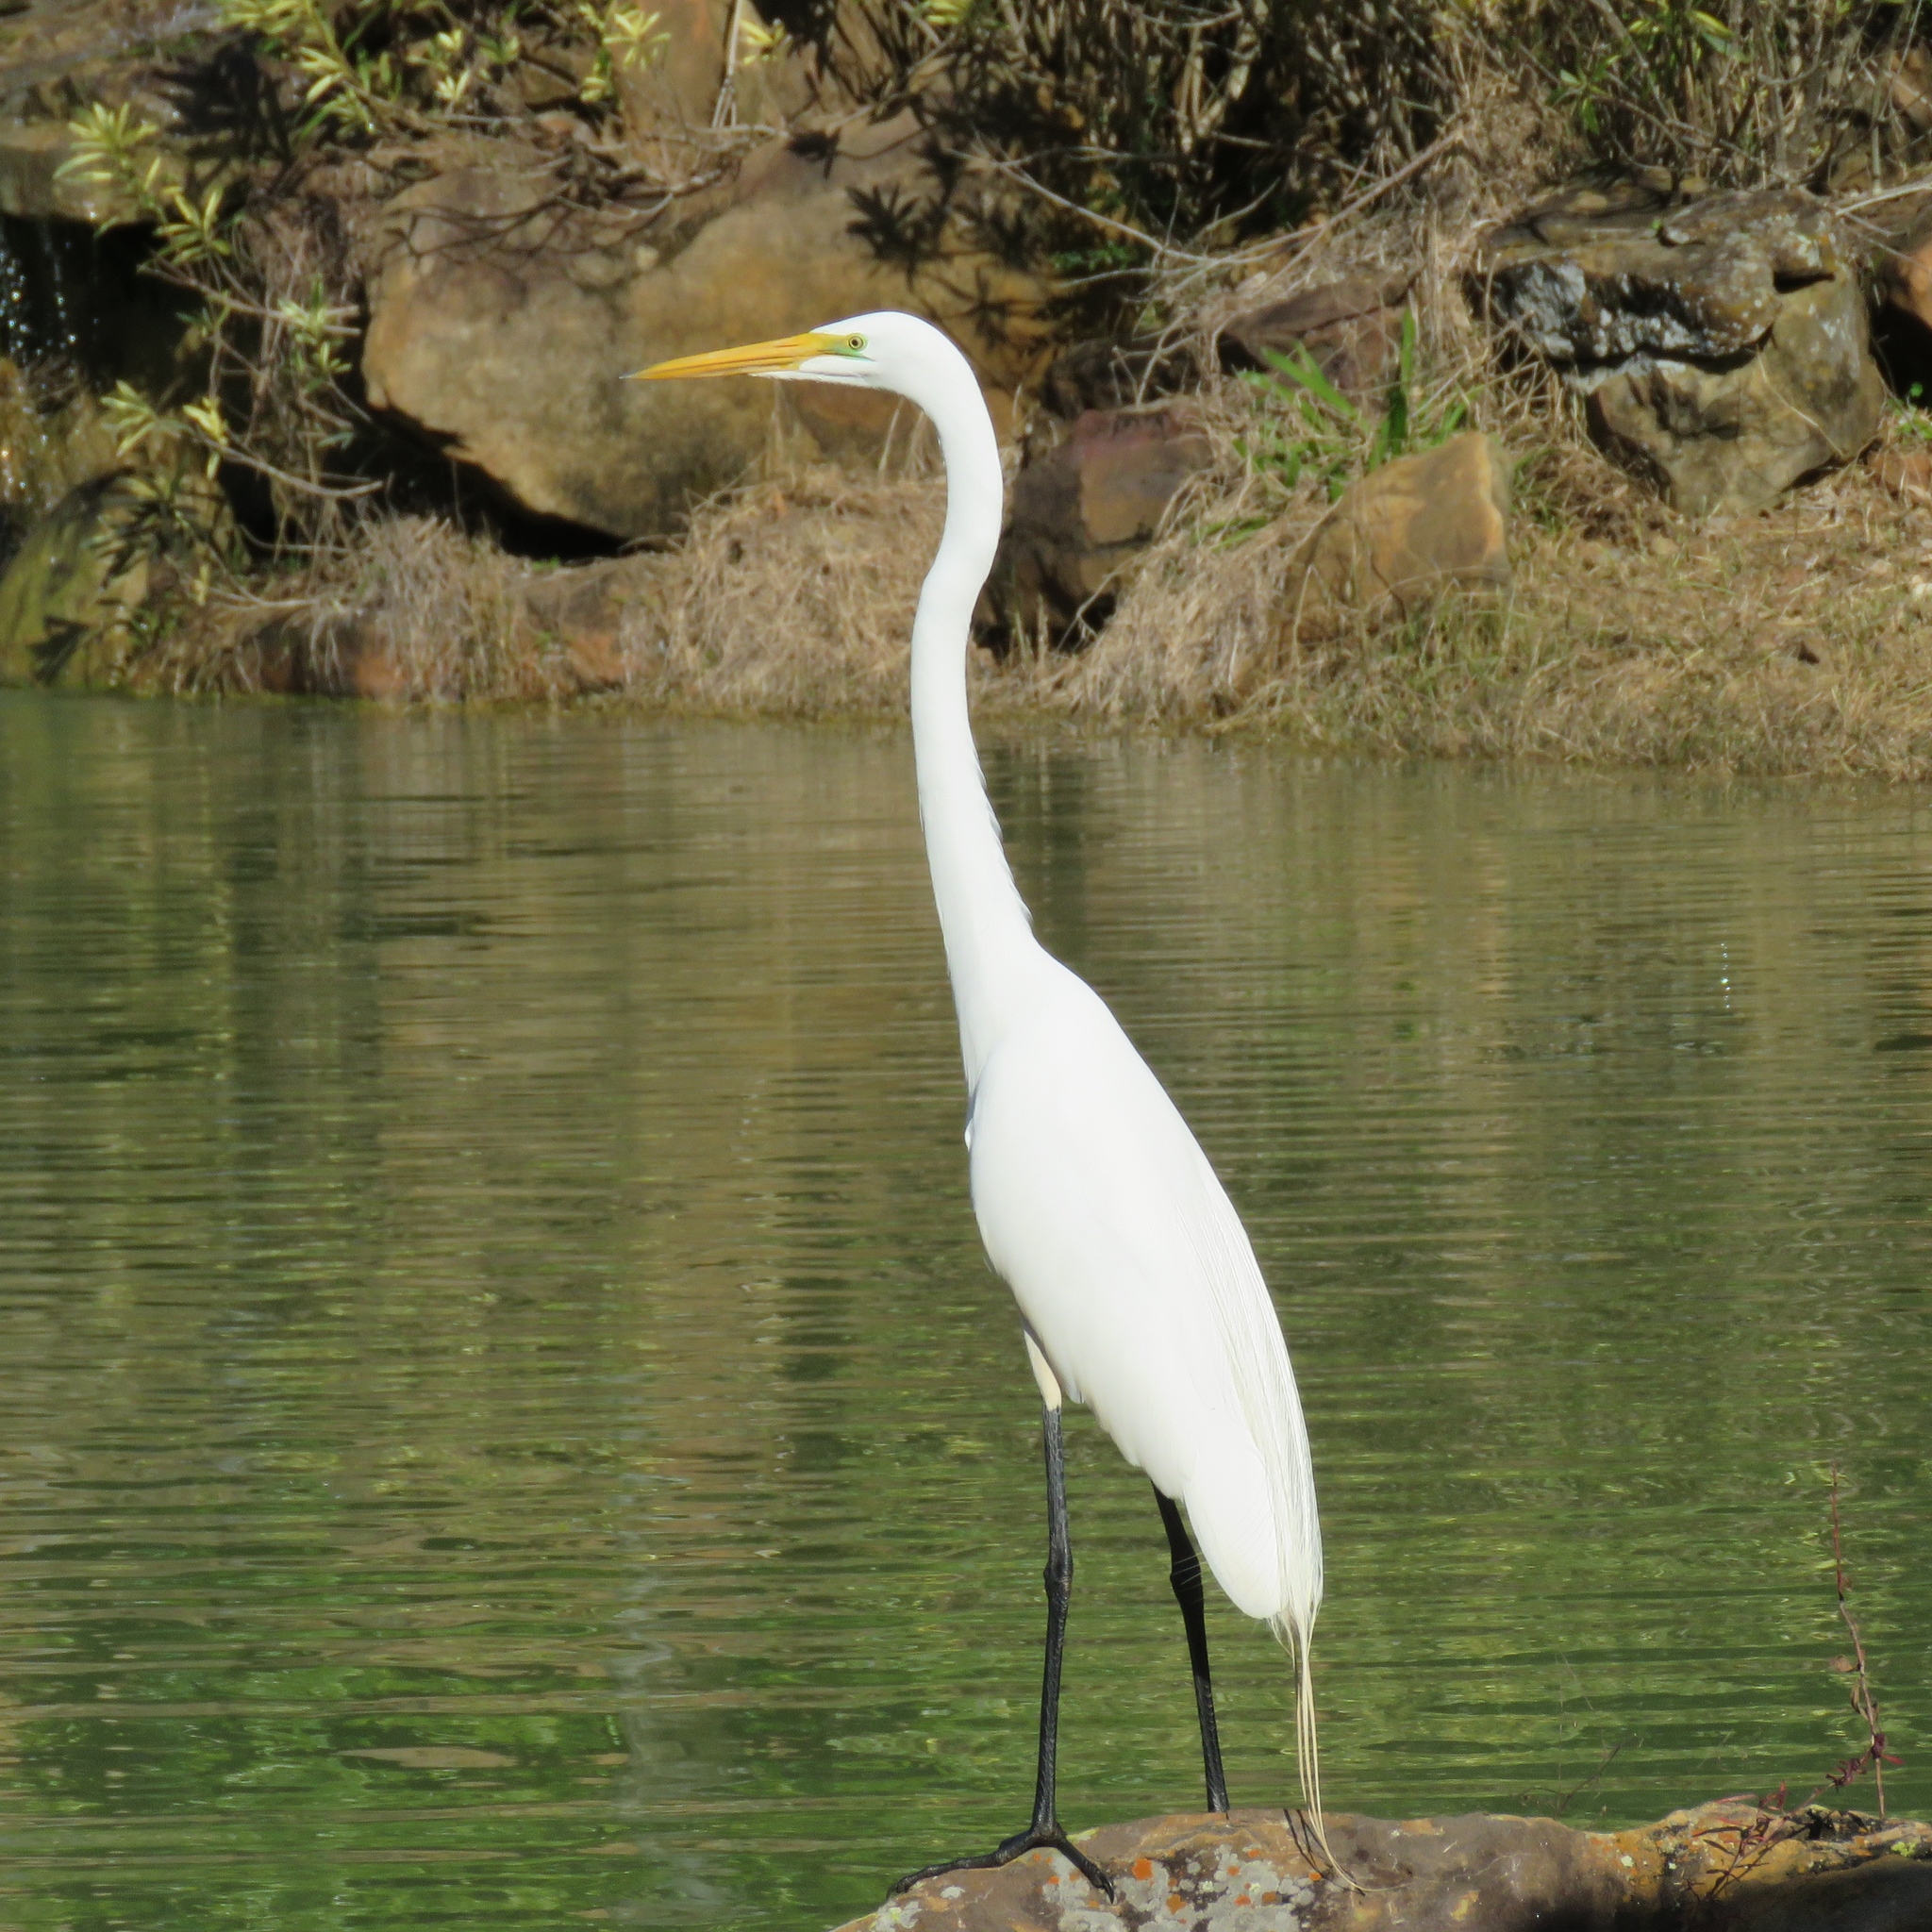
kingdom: Animalia
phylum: Chordata
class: Aves
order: Pelecaniformes
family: Ardeidae
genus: Ardea
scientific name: Ardea alba
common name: Great egret
